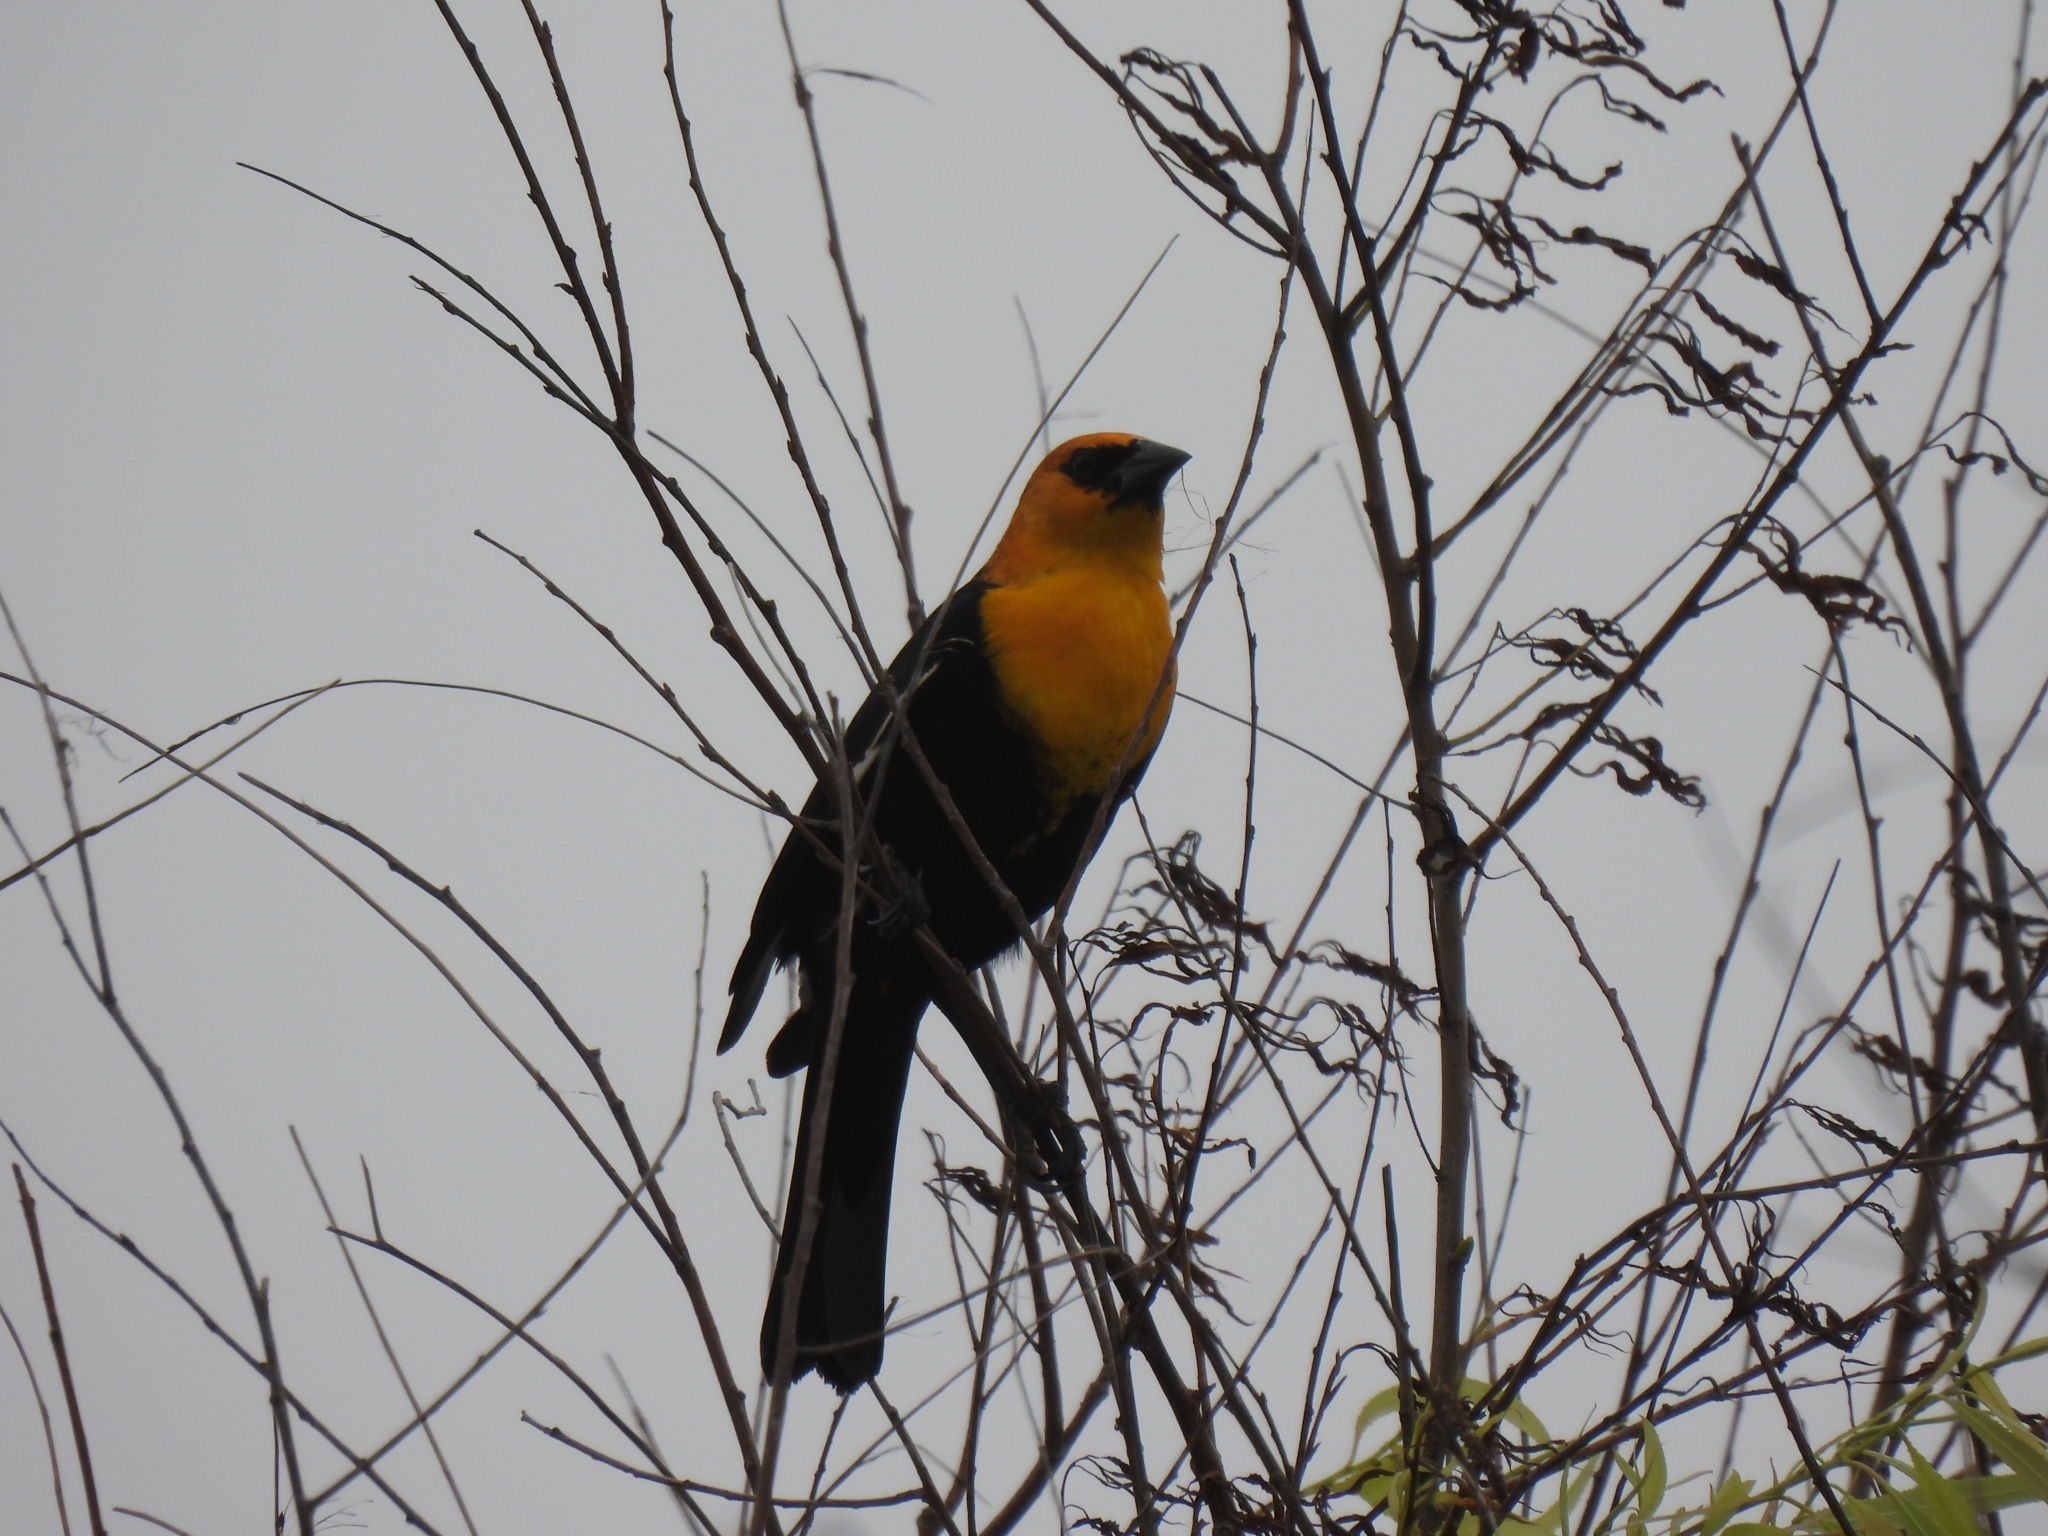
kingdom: Animalia
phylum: Chordata
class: Aves
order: Passeriformes
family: Icteridae
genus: Xanthocephalus
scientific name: Xanthocephalus xanthocephalus
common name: Yellow-headed blackbird
